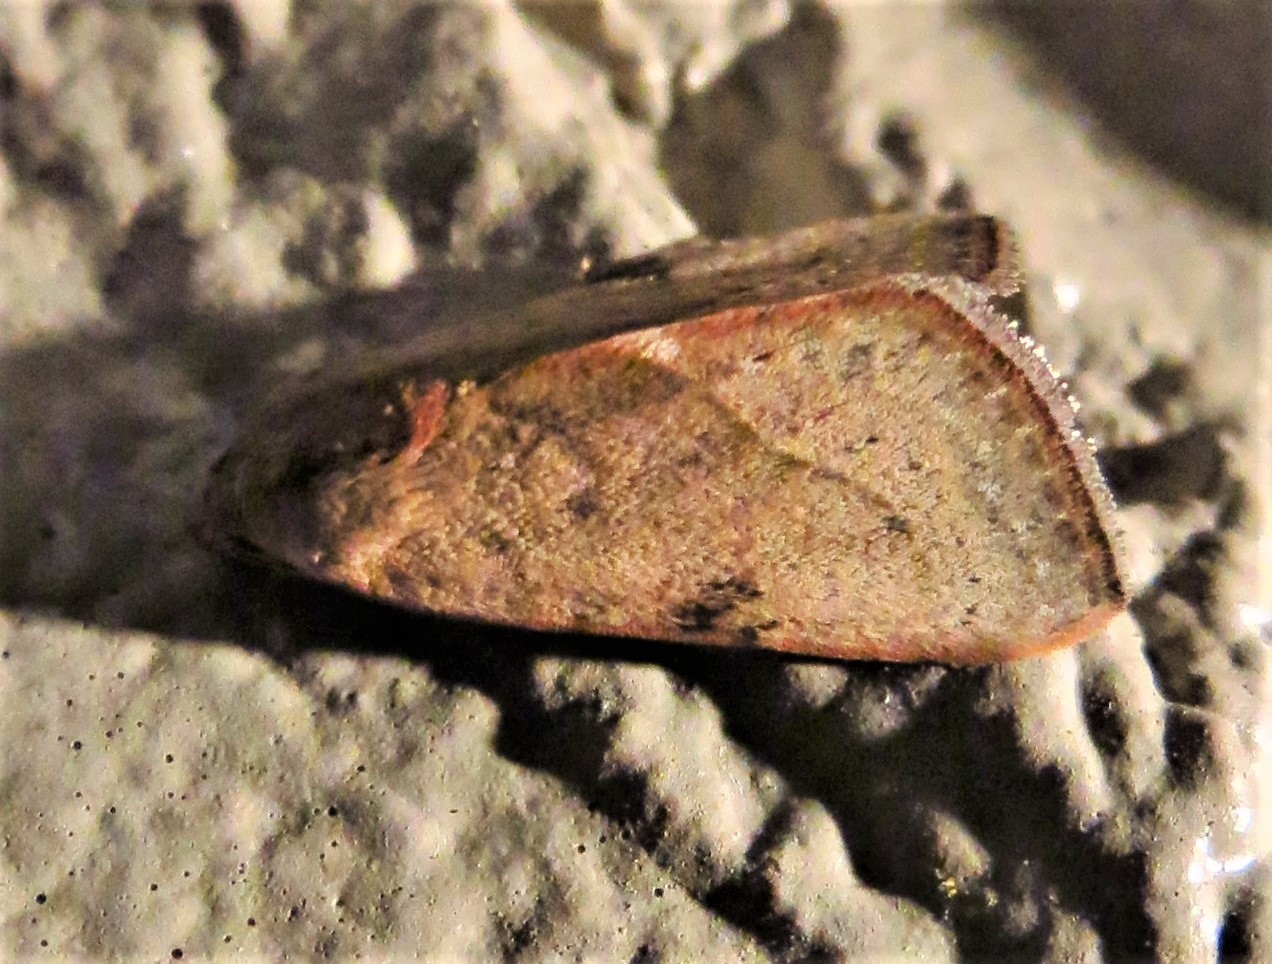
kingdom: Animalia
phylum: Arthropoda
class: Insecta
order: Lepidoptera
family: Noctuidae
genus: Galgula
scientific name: Galgula partita
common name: Wedgeling
